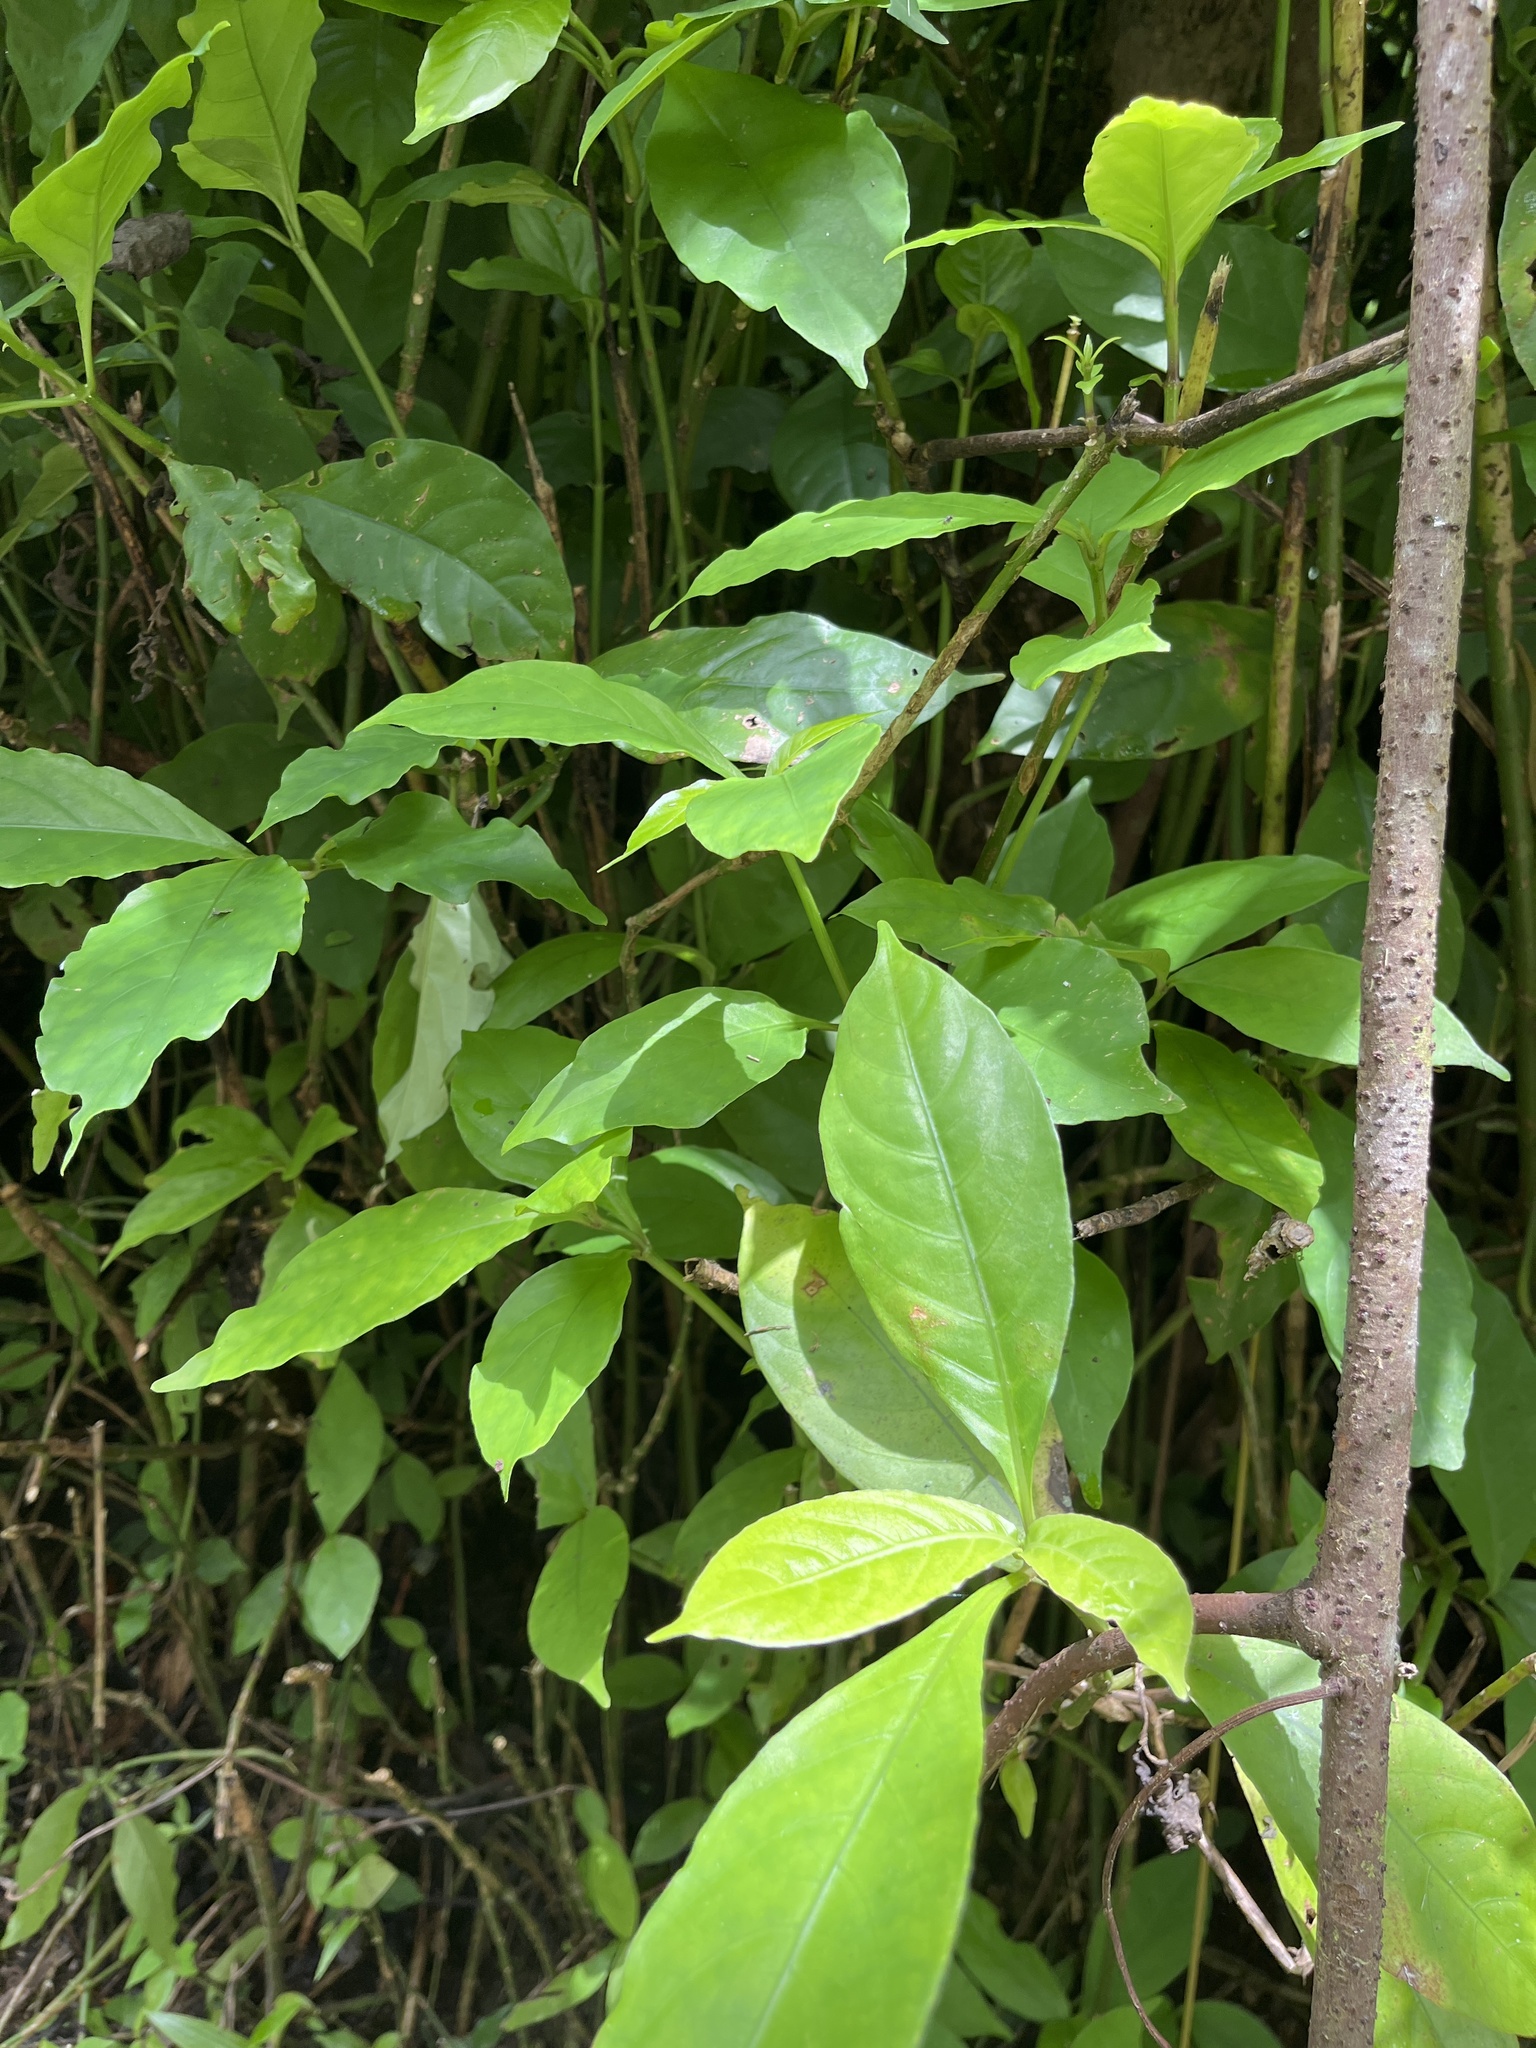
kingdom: Plantae
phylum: Tracheophyta
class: Magnoliopsida
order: Lamiales
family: Acanthaceae
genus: Odontonema
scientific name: Odontonema cuspidatum
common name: Mottled toothedthread
